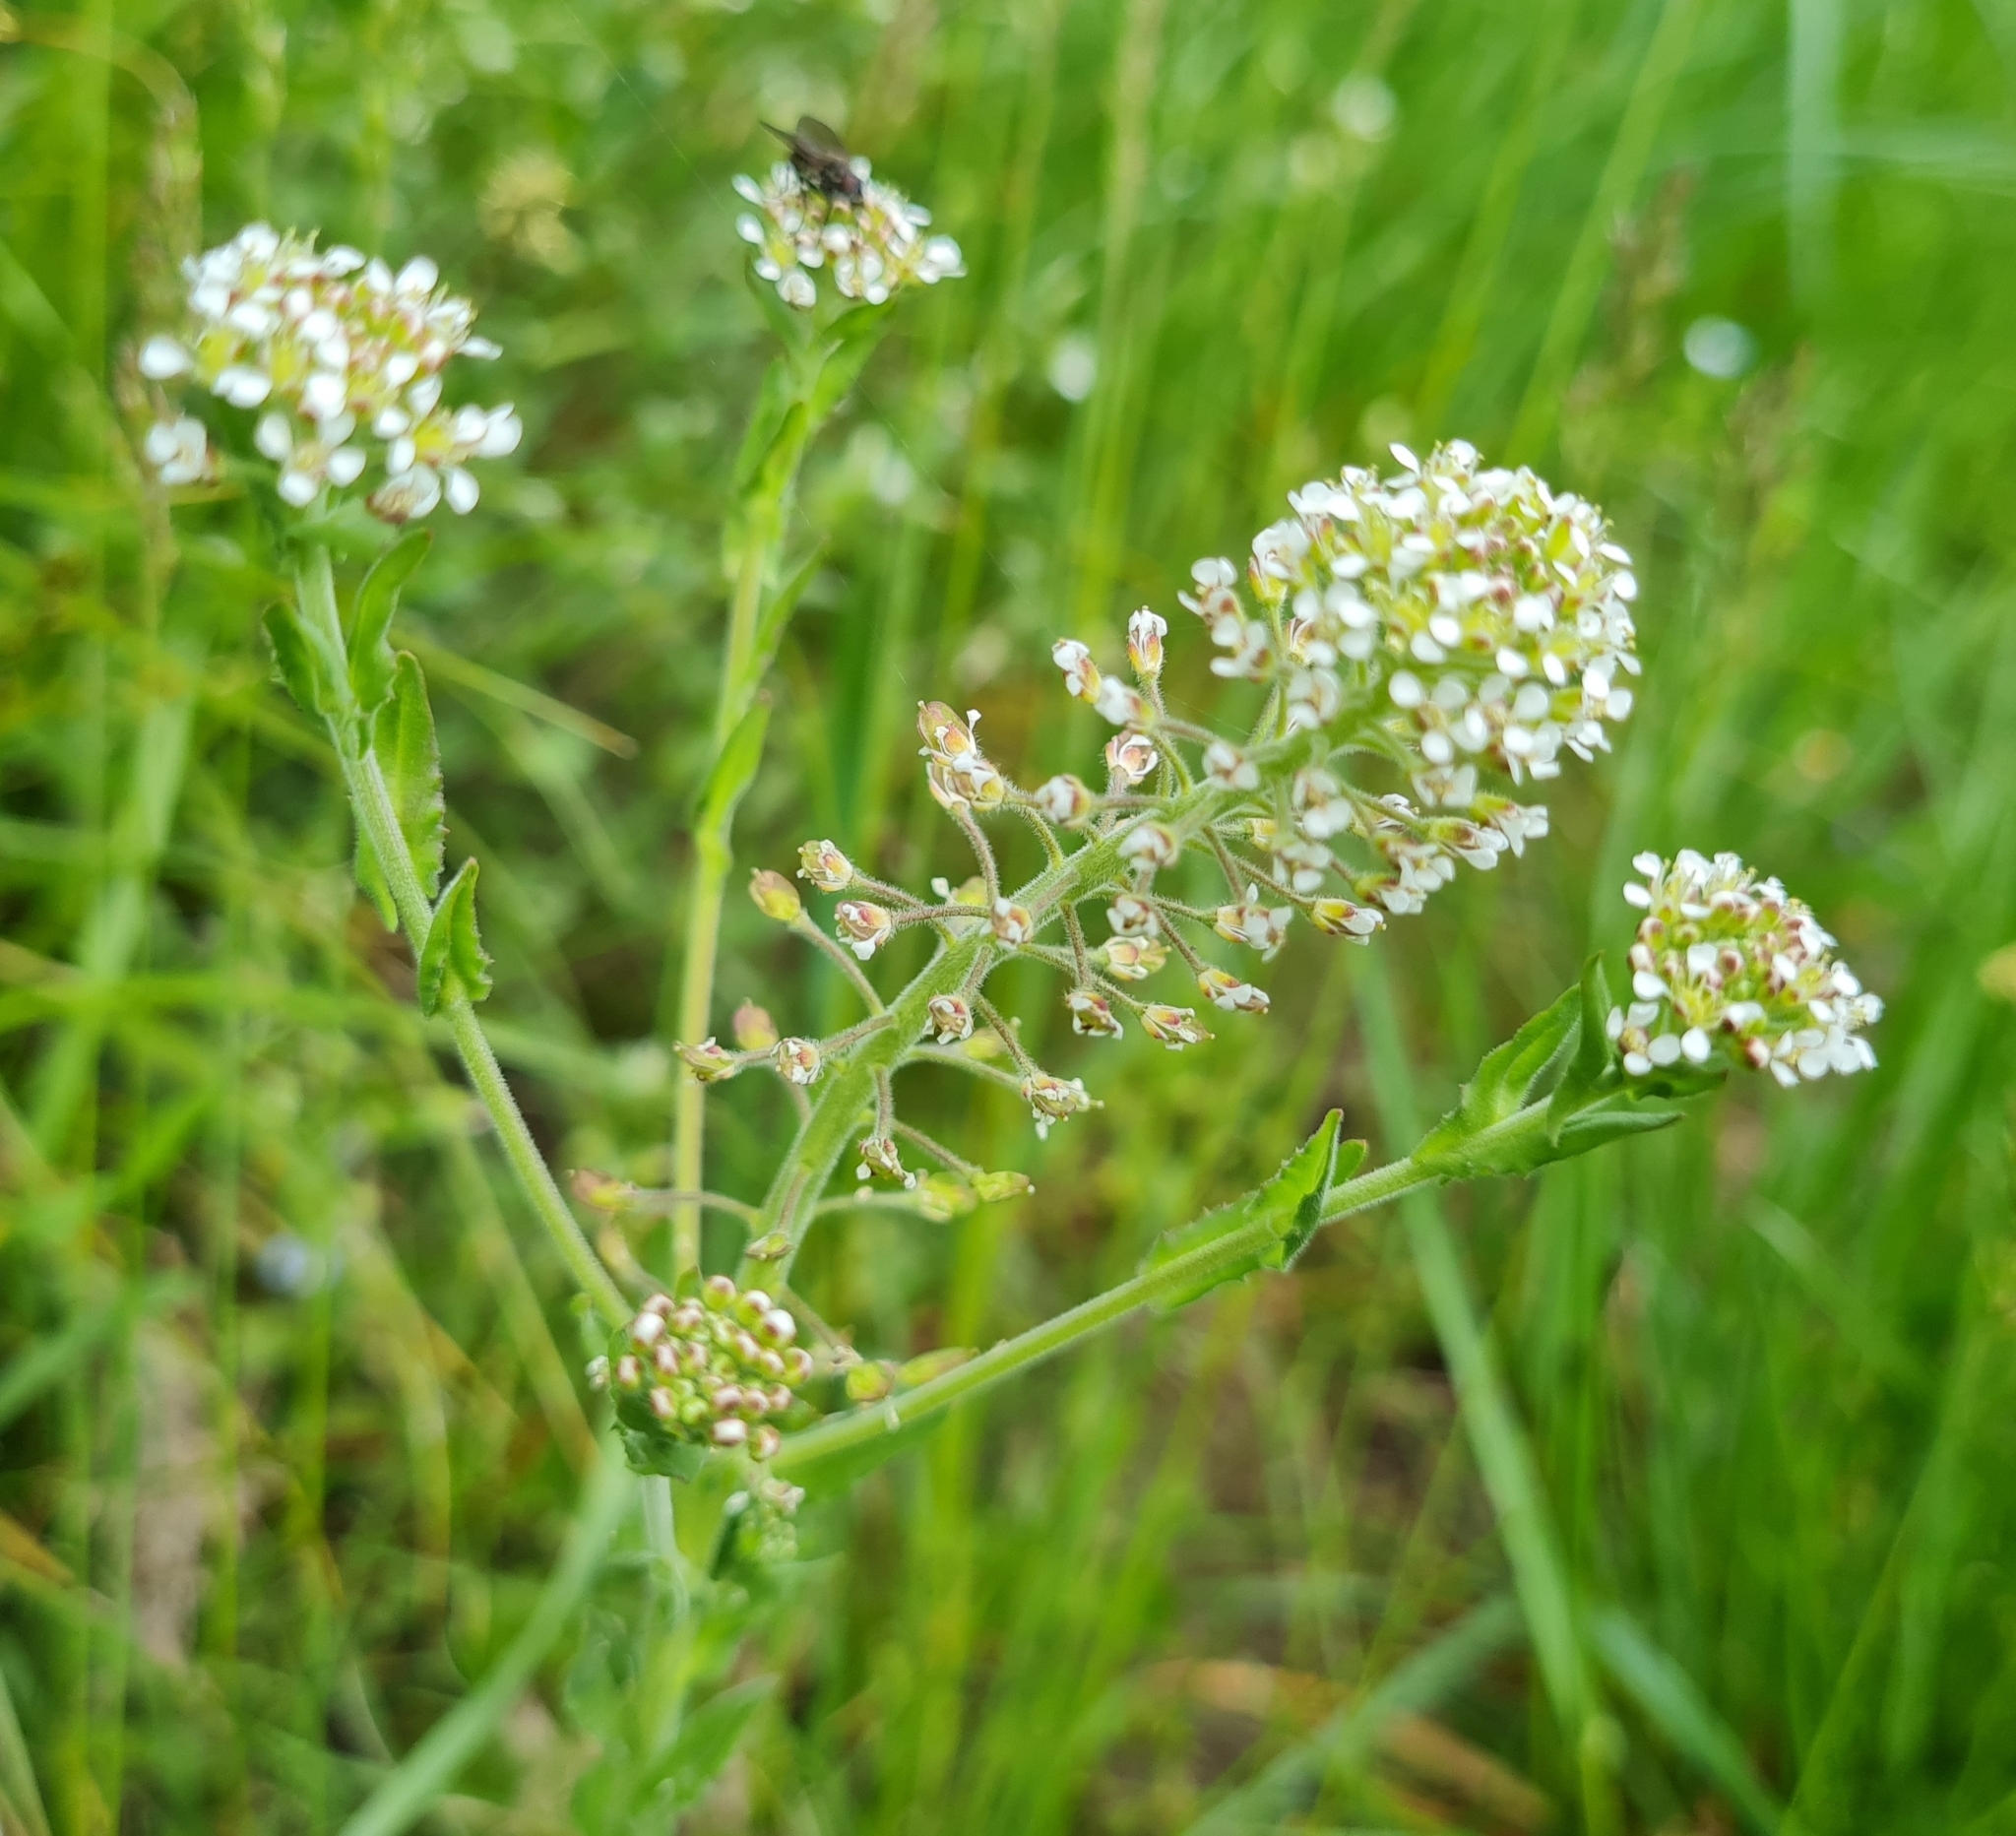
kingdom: Plantae
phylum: Tracheophyta
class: Magnoliopsida
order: Brassicales
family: Brassicaceae
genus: Lepidium
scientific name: Lepidium campestre
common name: Field pepperwort
